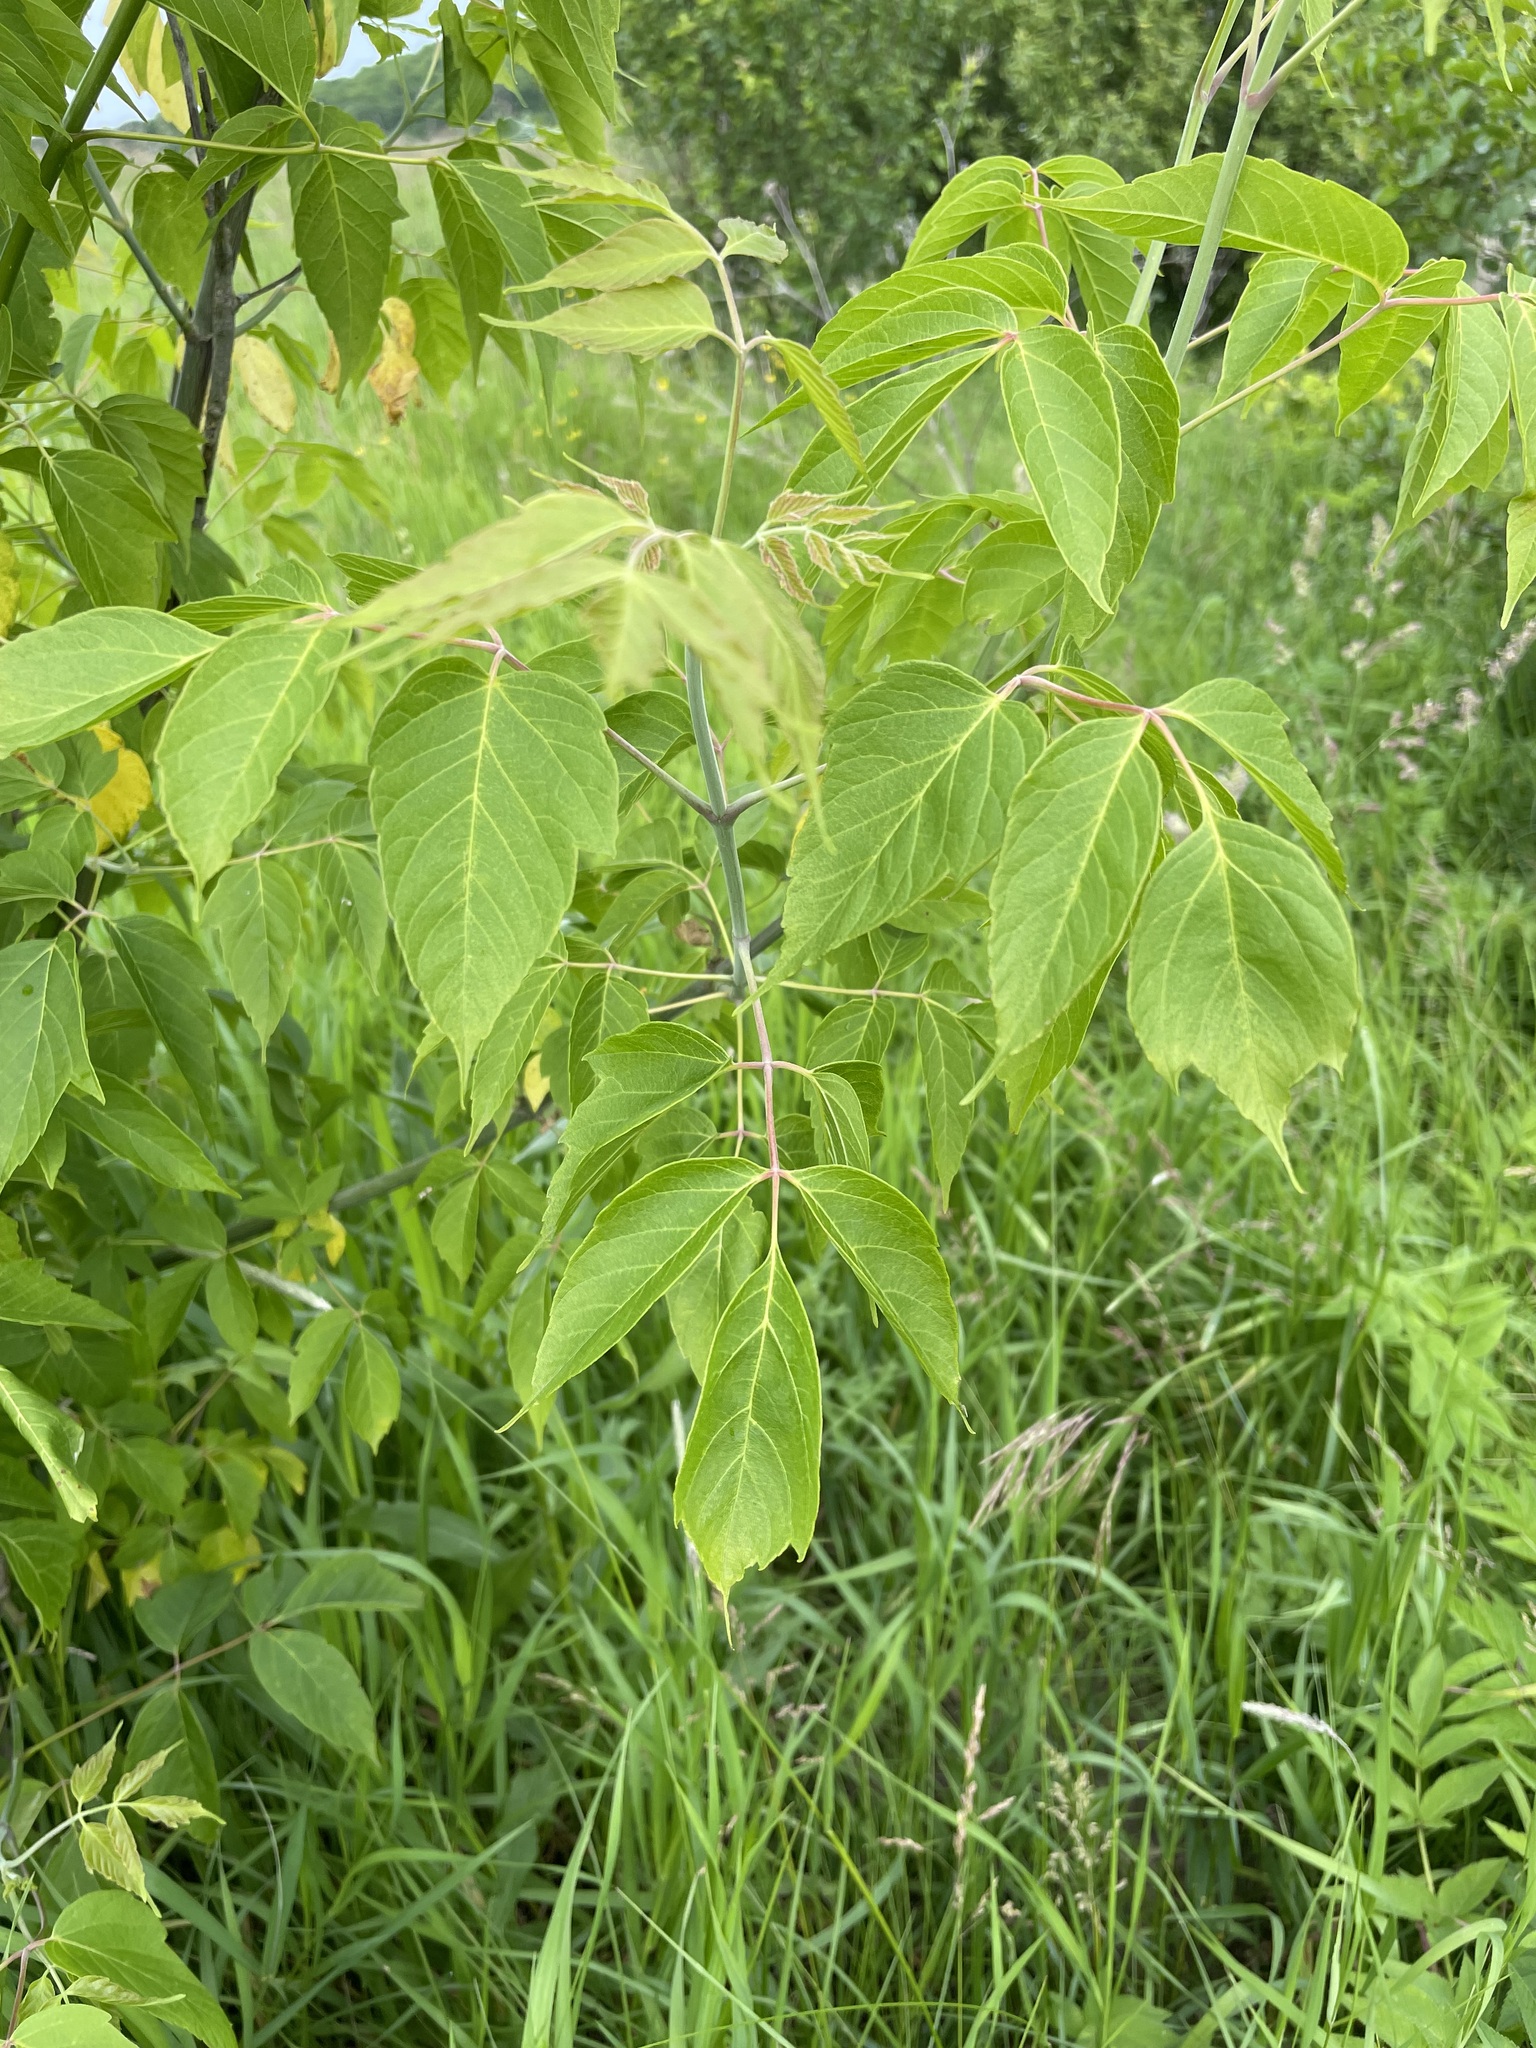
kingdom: Plantae
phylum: Tracheophyta
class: Magnoliopsida
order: Sapindales
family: Sapindaceae
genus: Acer
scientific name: Acer negundo
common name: Ashleaf maple
